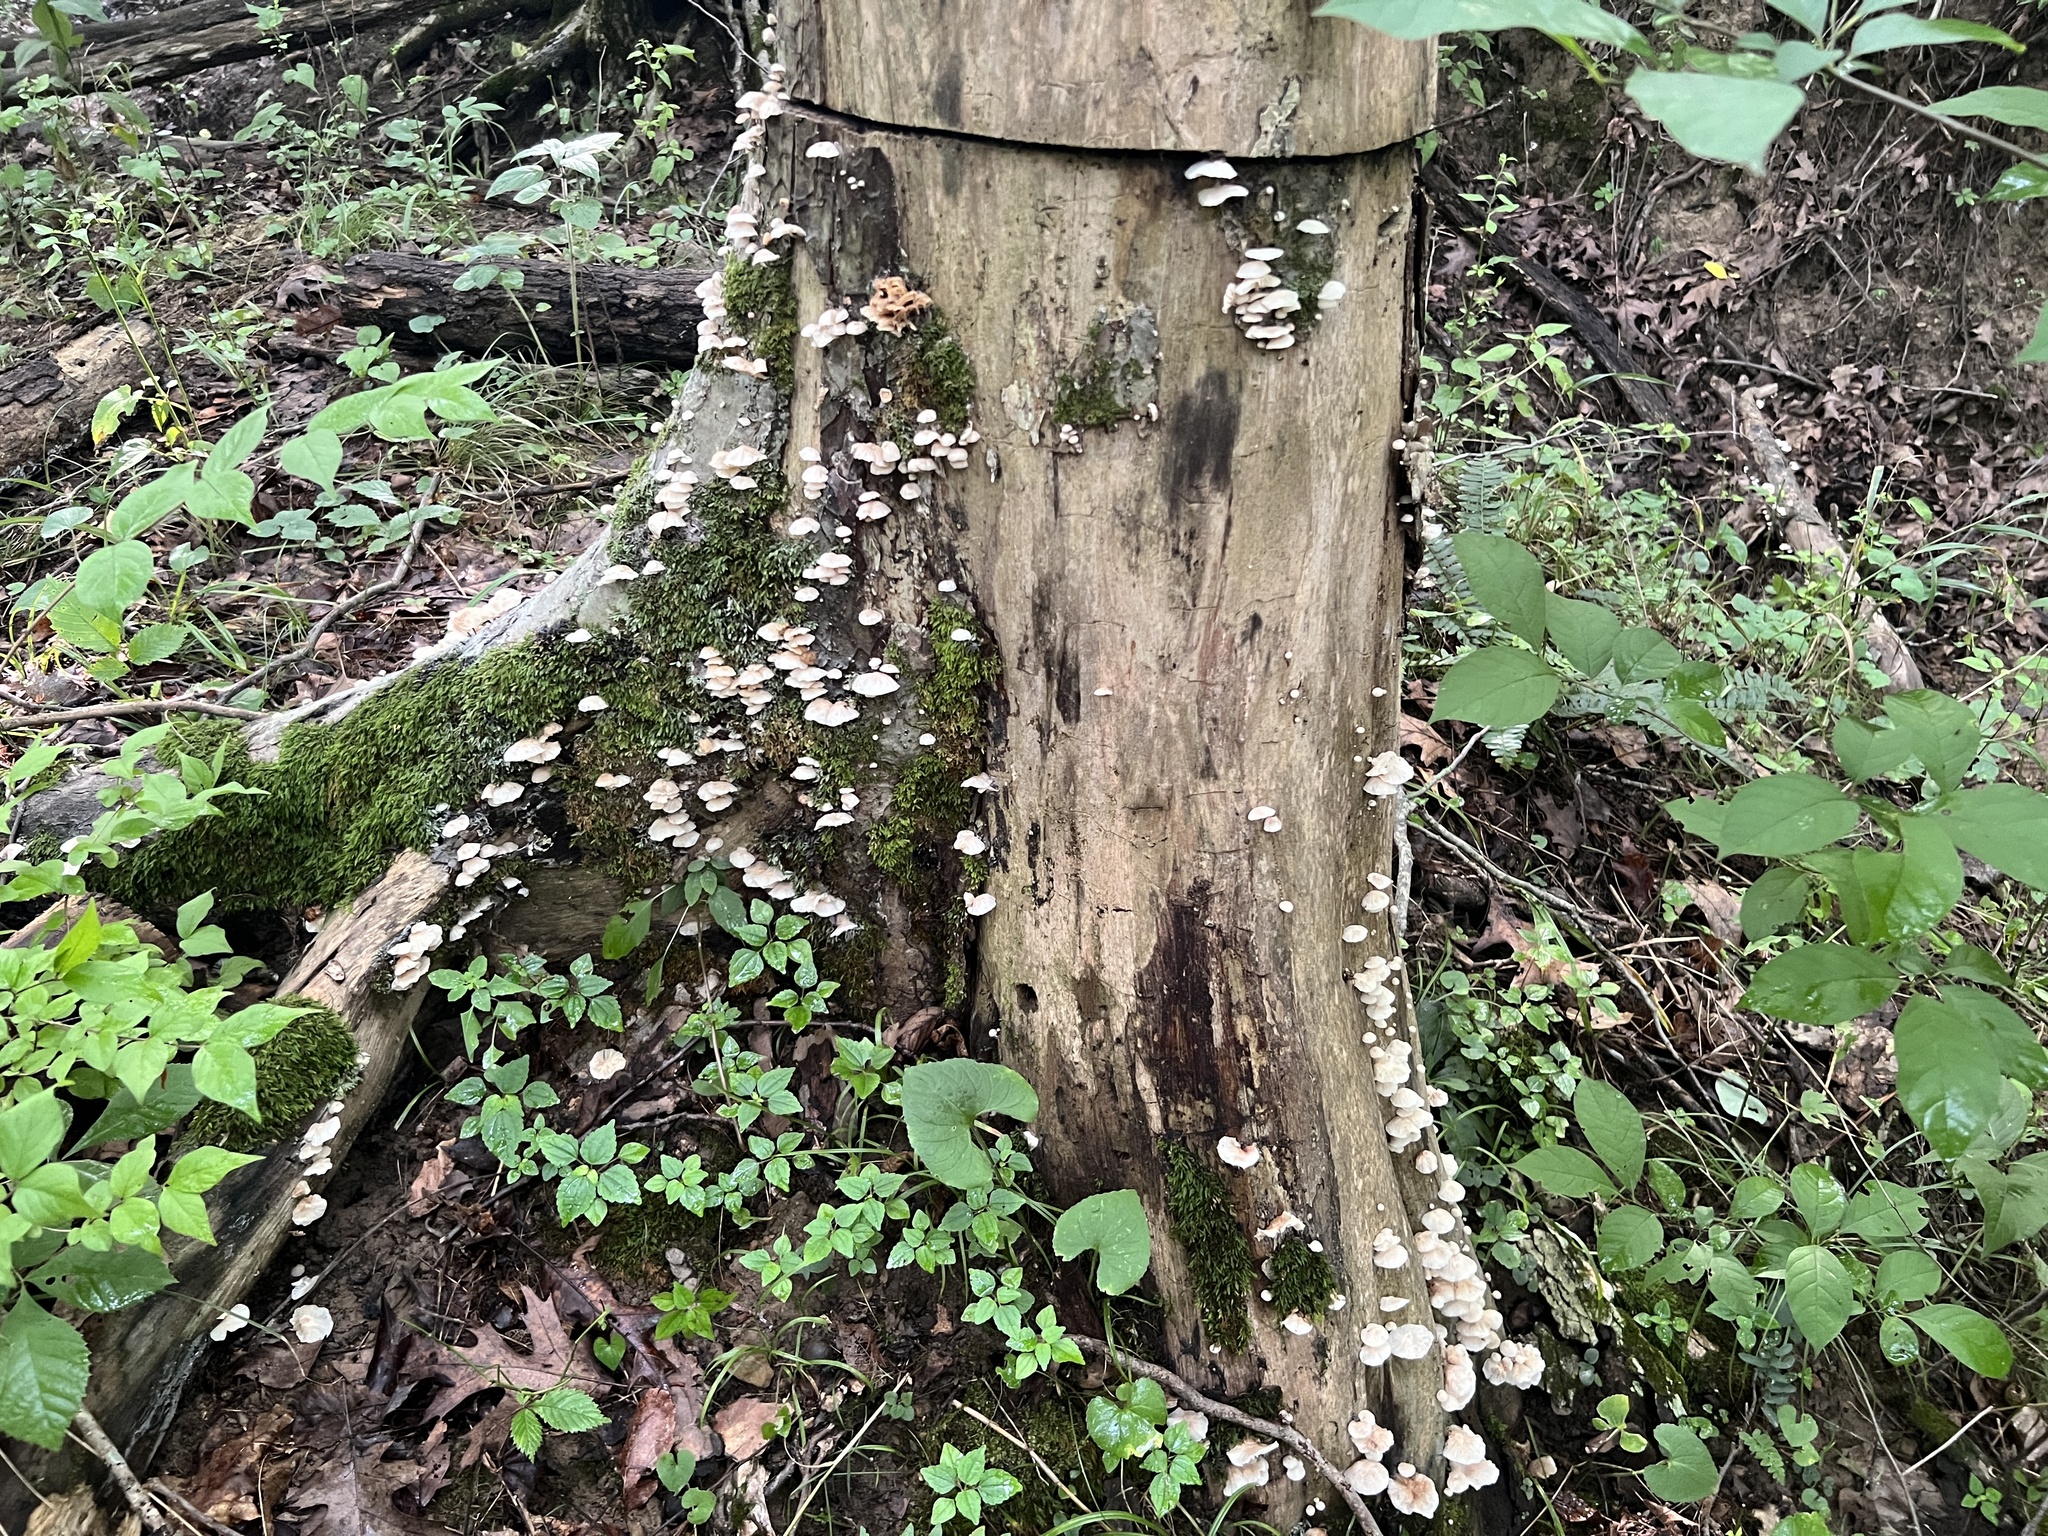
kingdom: Fungi
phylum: Basidiomycota
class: Agaricomycetes
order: Agaricales
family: Omphalotaceae
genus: Marasmiellus
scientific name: Marasmiellus candidus
